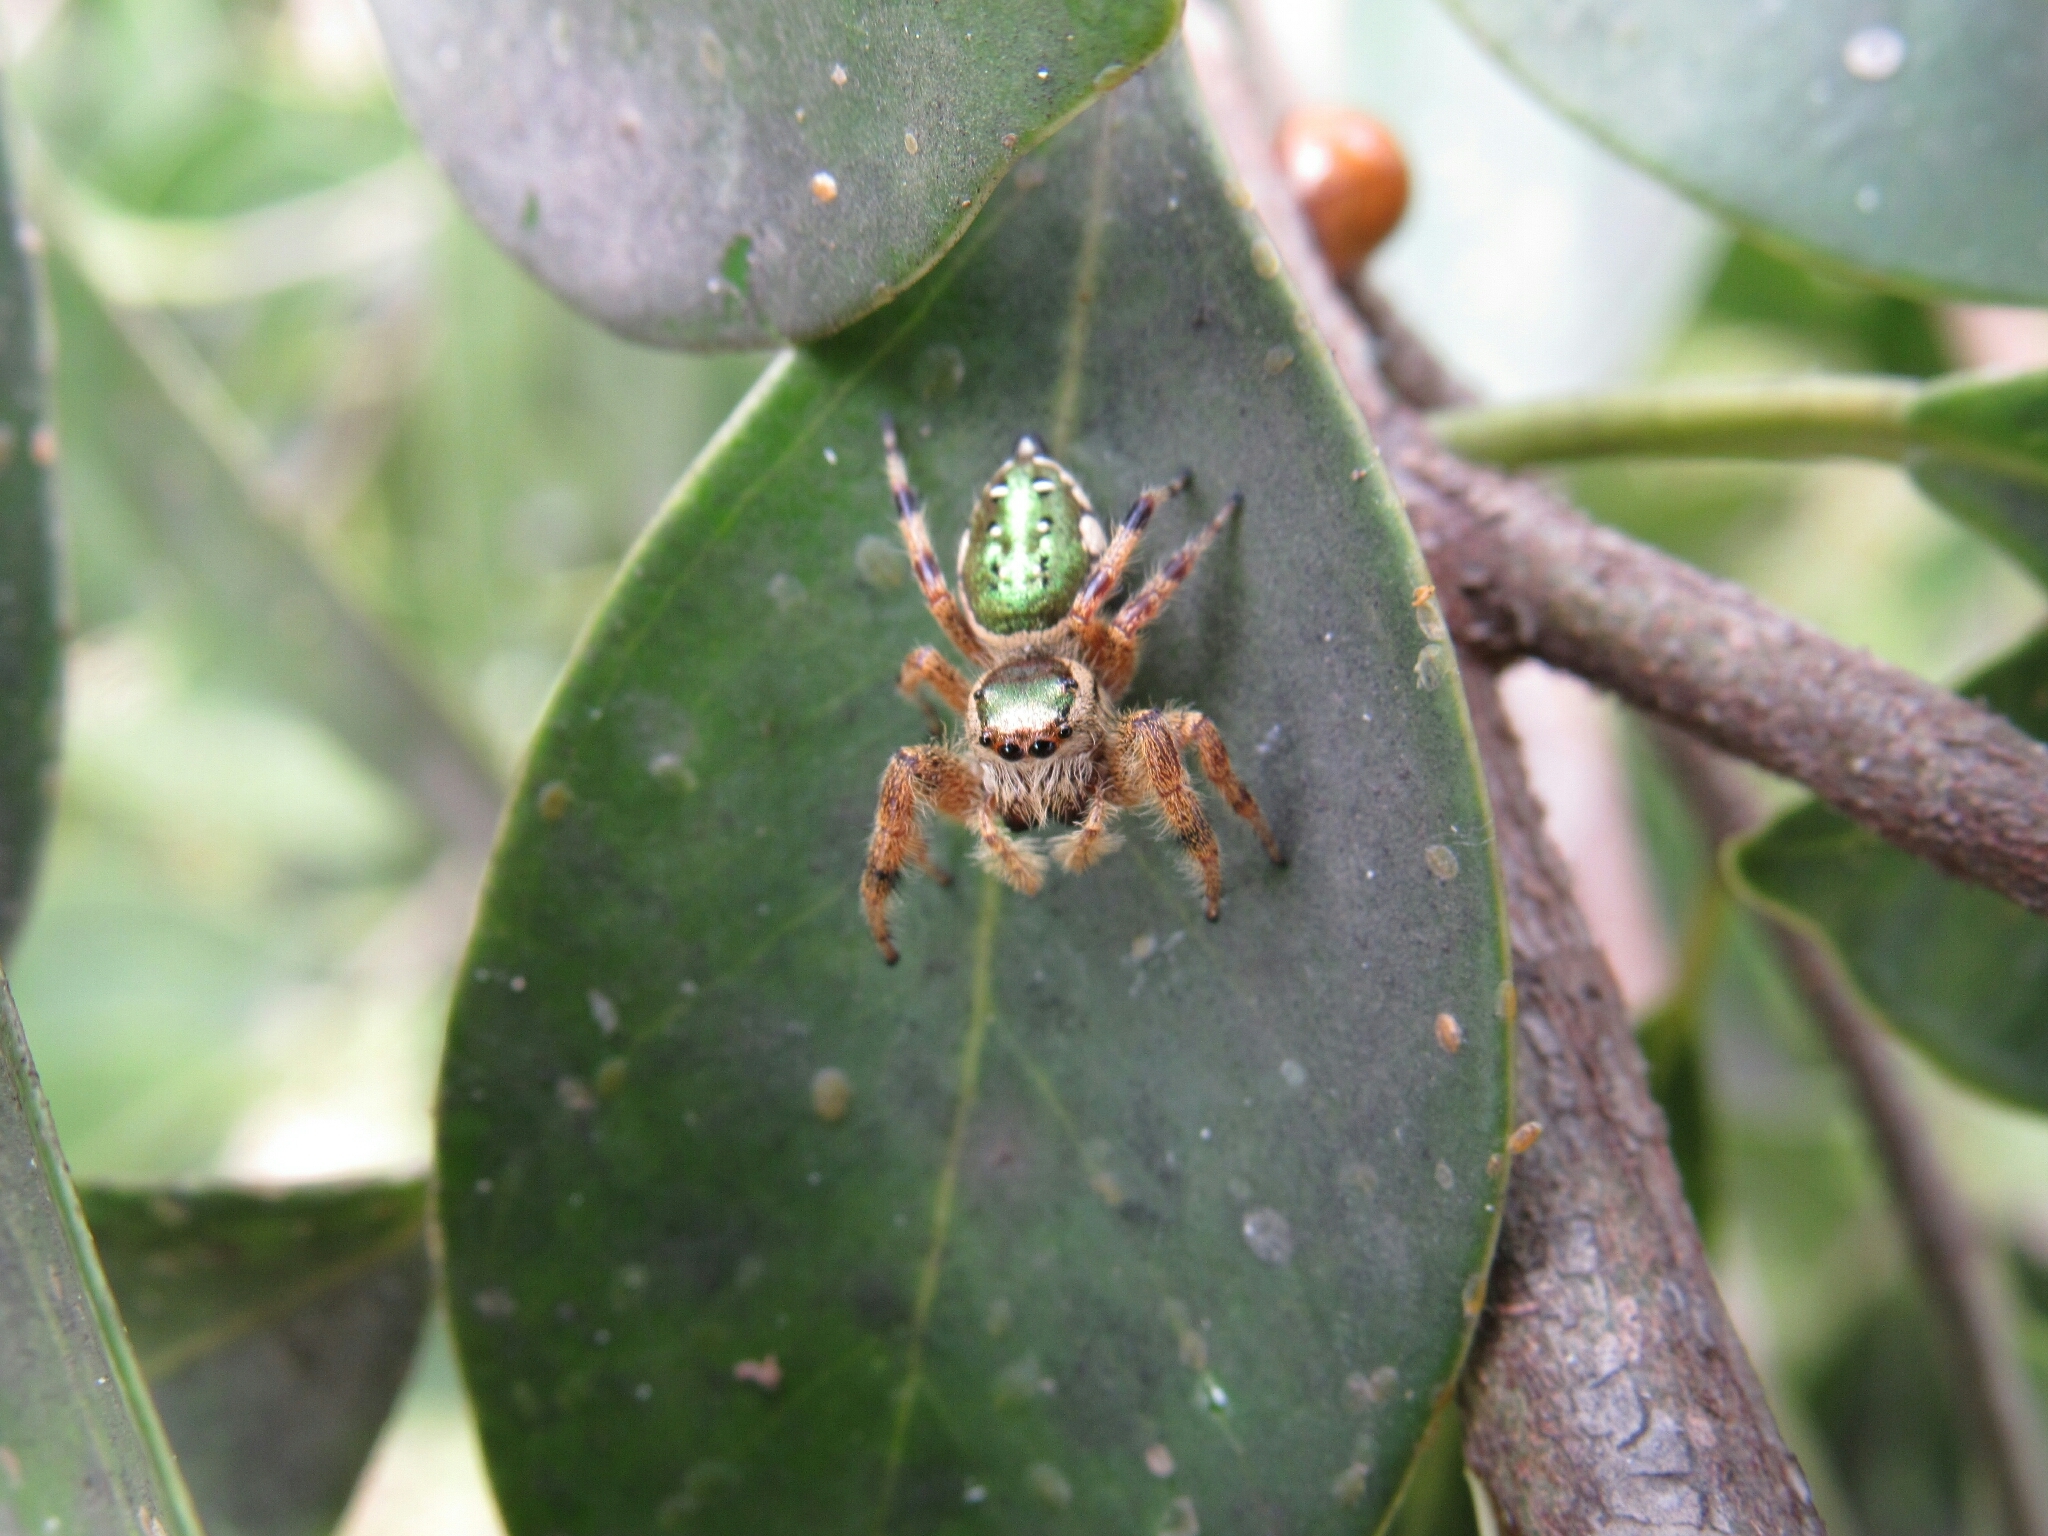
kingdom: Animalia
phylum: Arthropoda
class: Arachnida
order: Araneae
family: Salticidae
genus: Paraphidippus
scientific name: Paraphidippus aurantius
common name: Jumping spiders
